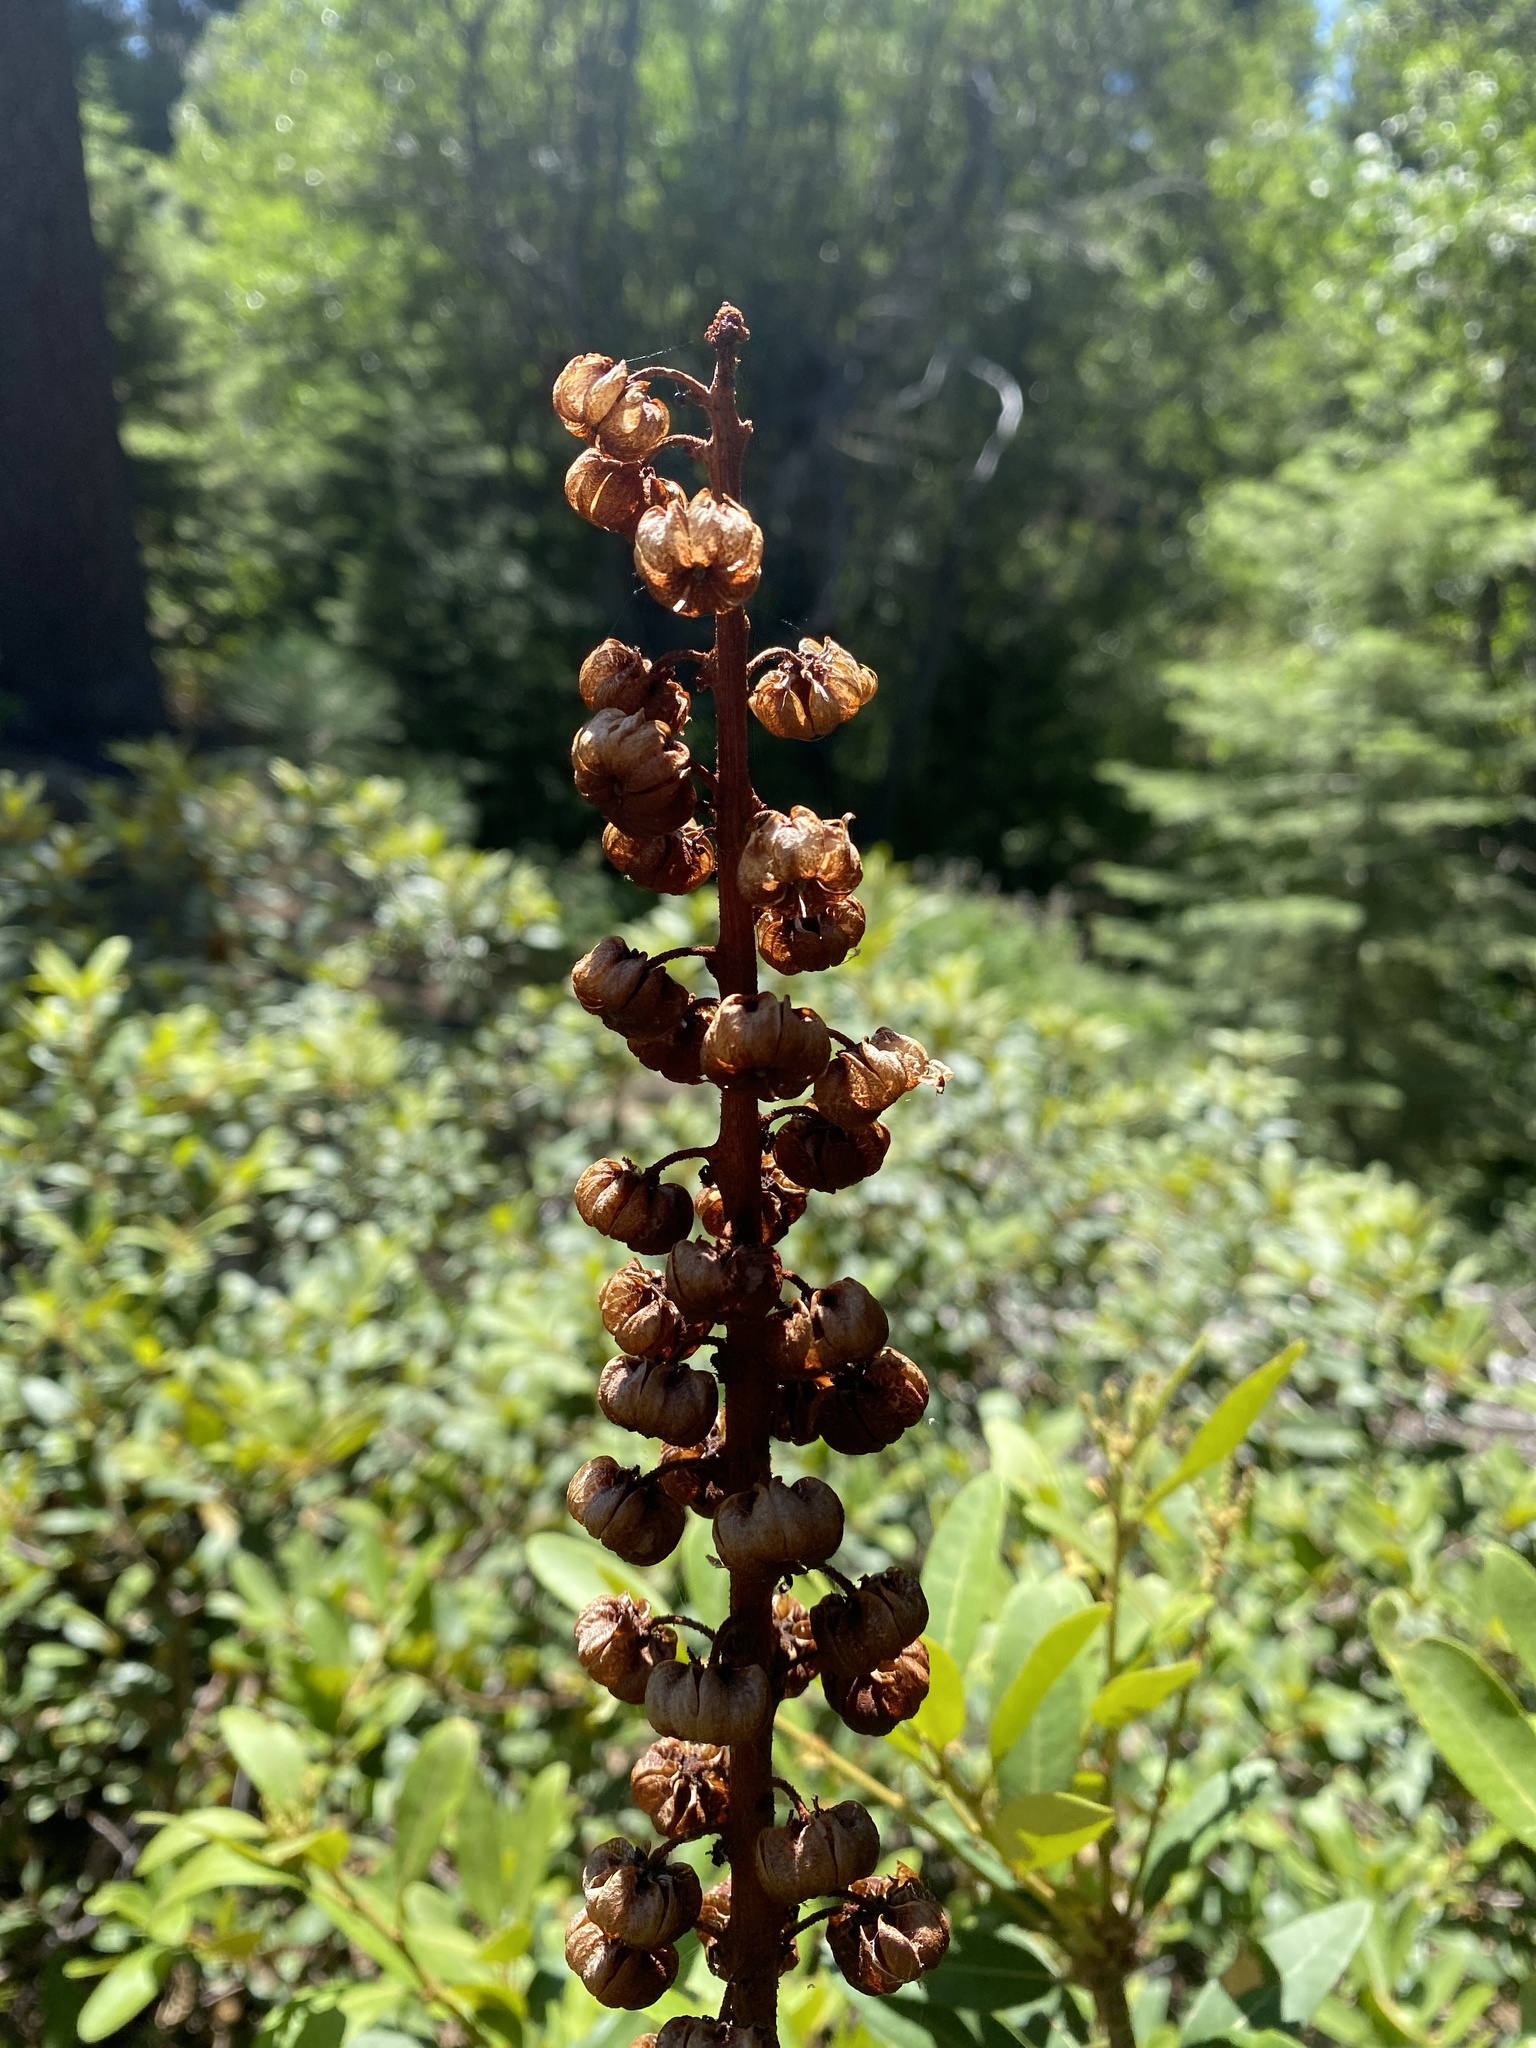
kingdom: Plantae
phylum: Tracheophyta
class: Magnoliopsida
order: Ericales
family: Ericaceae
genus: Pterospora
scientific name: Pterospora andromedea
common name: Giant bird's-nest
